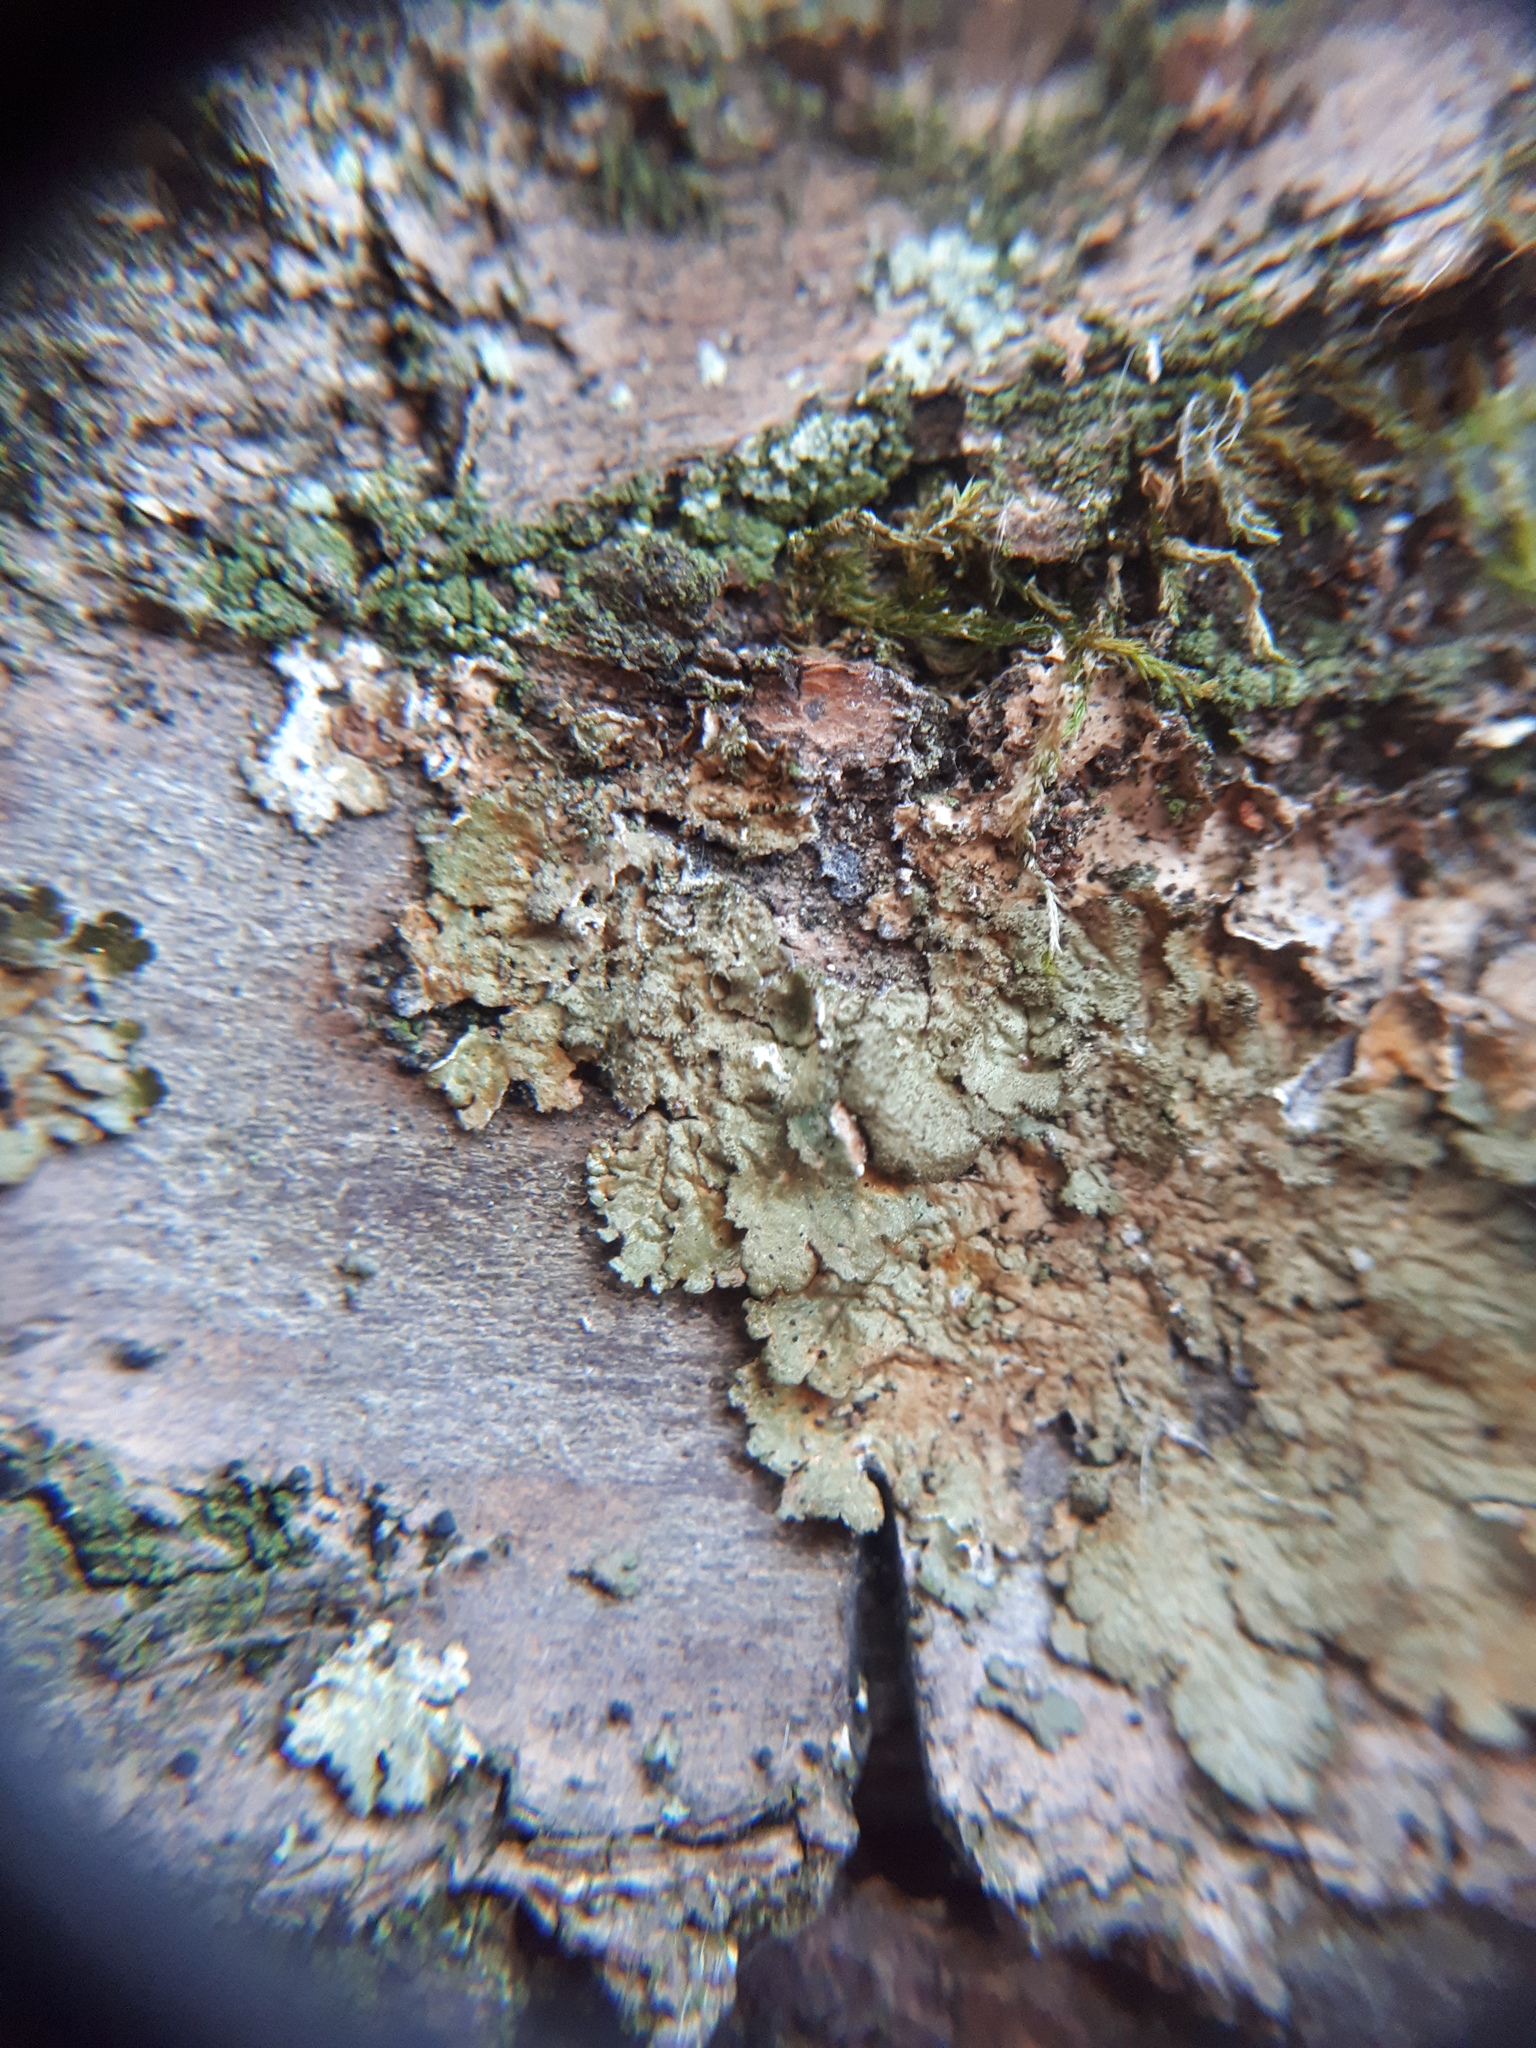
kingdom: Fungi
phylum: Ascomycota
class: Lecanoromycetes
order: Lecanorales
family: Parmeliaceae
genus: Melanelixia
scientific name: Melanelixia glabratula
